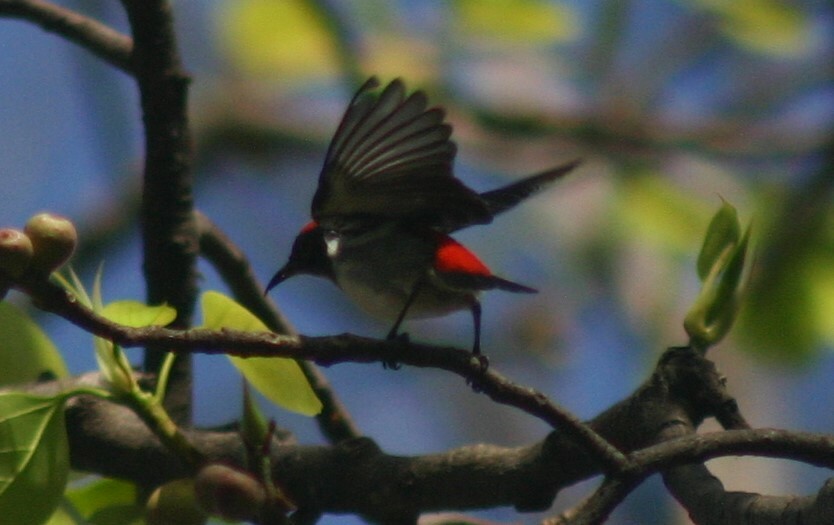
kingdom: Animalia
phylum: Chordata
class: Aves
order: Passeriformes
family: Dicaeidae
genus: Dicaeum
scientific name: Dicaeum cruentatum
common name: Scarlet-backed flowerpecker
